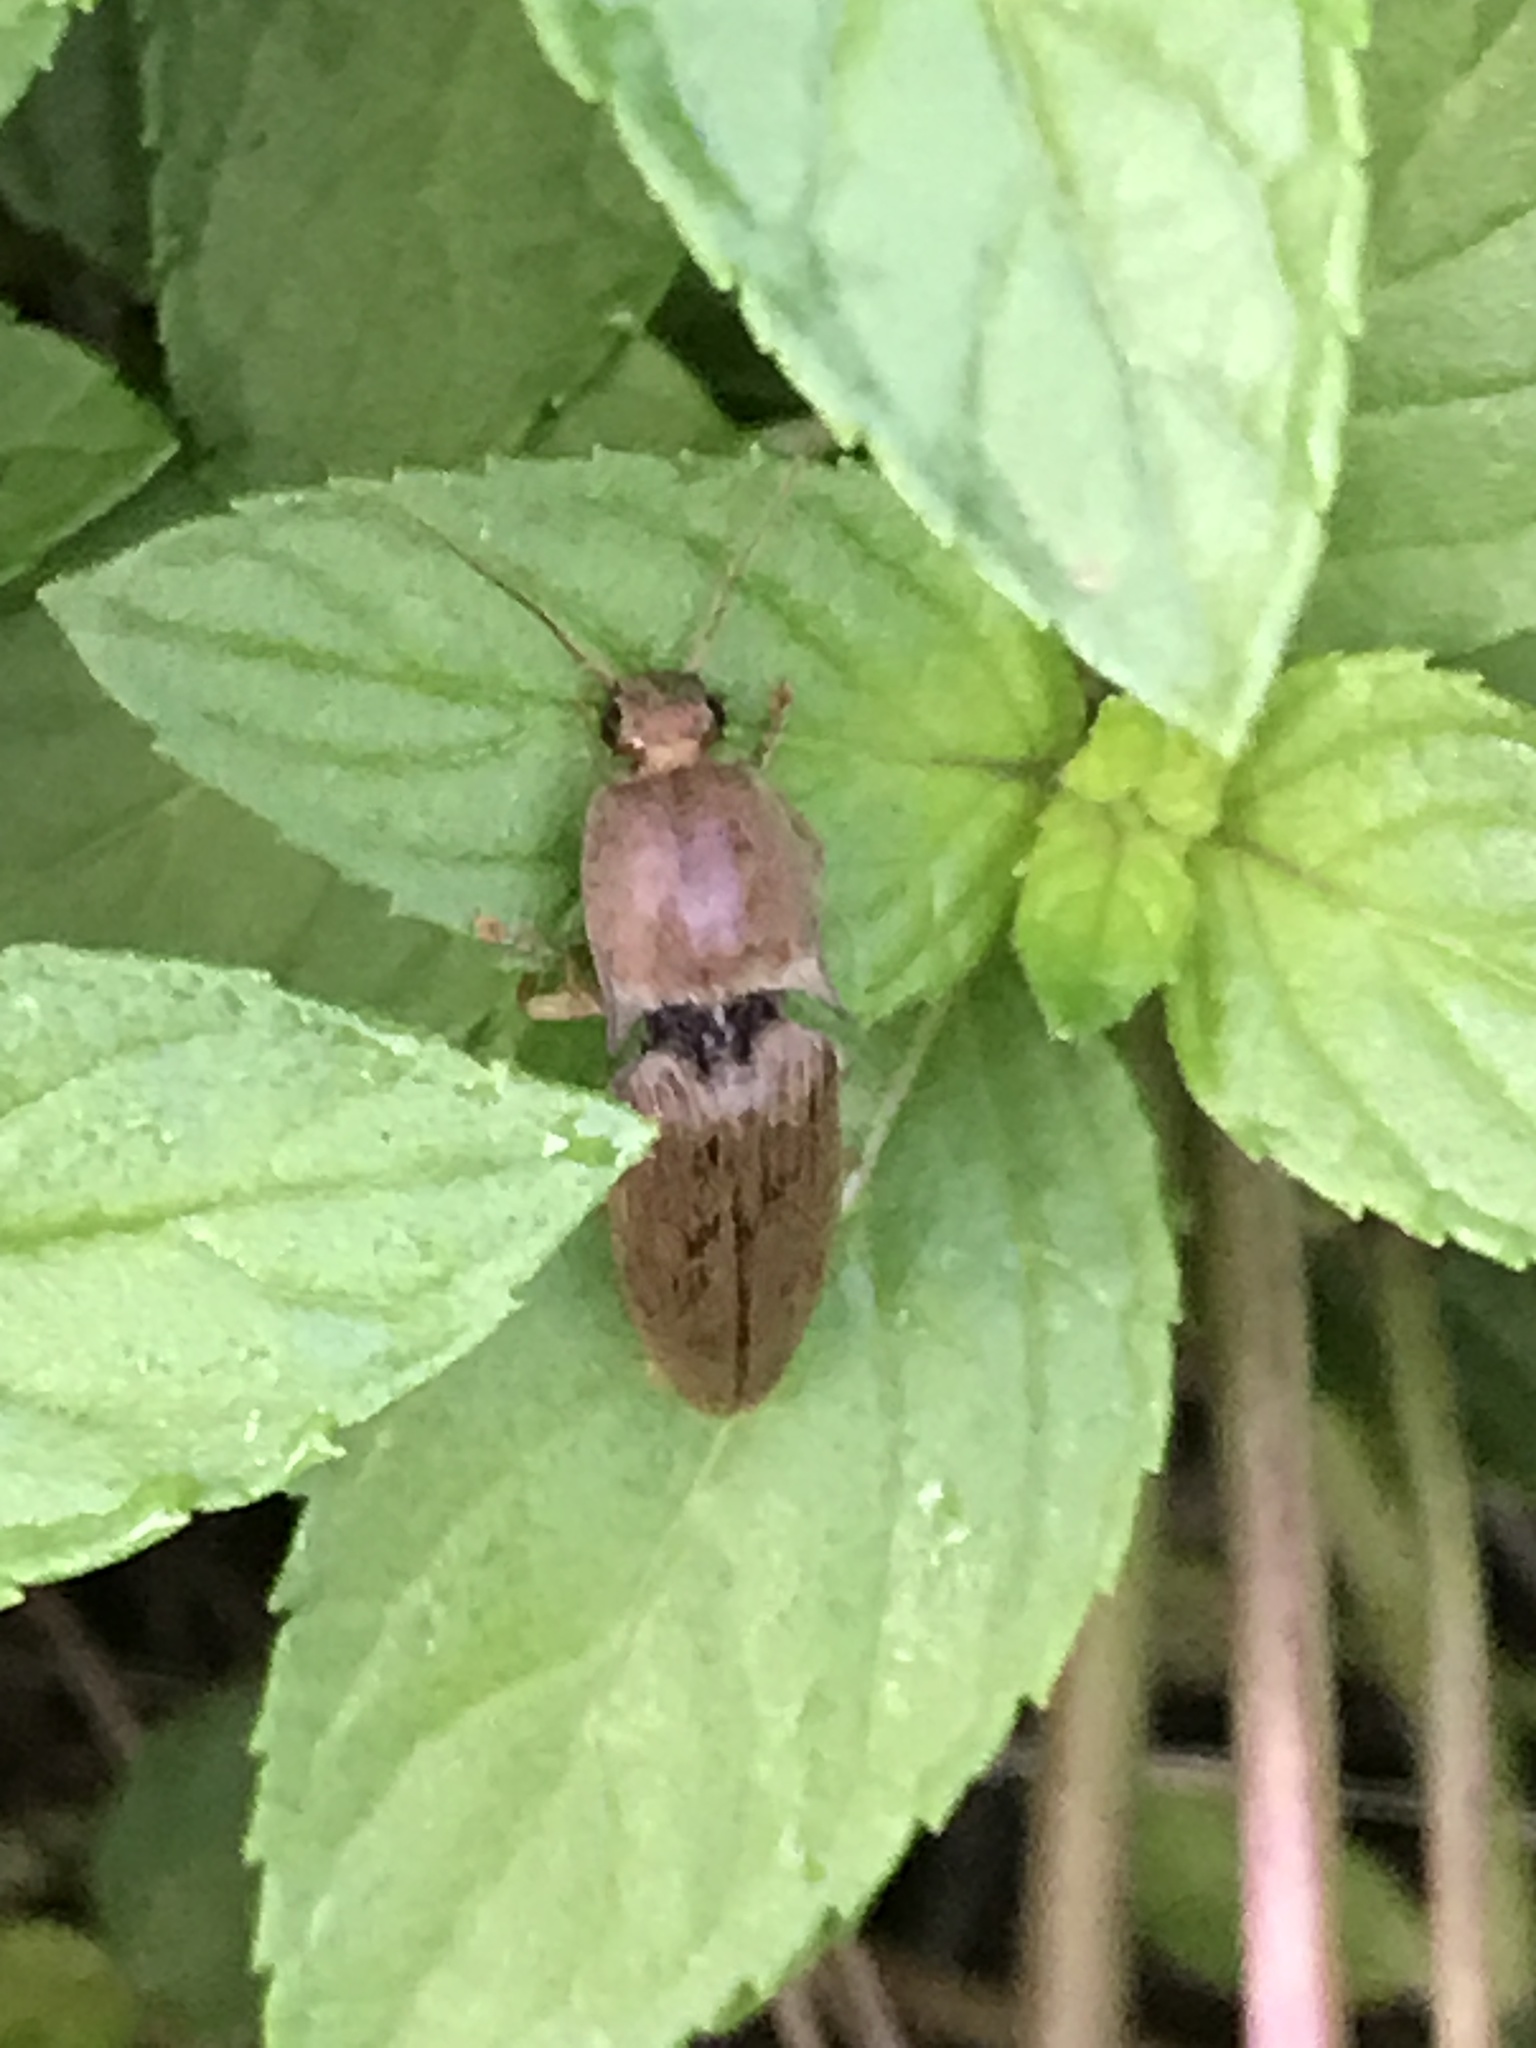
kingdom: Animalia
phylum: Arthropoda
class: Insecta
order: Coleoptera
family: Elateridae
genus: Monocrepidius
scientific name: Monocrepidius lividus
